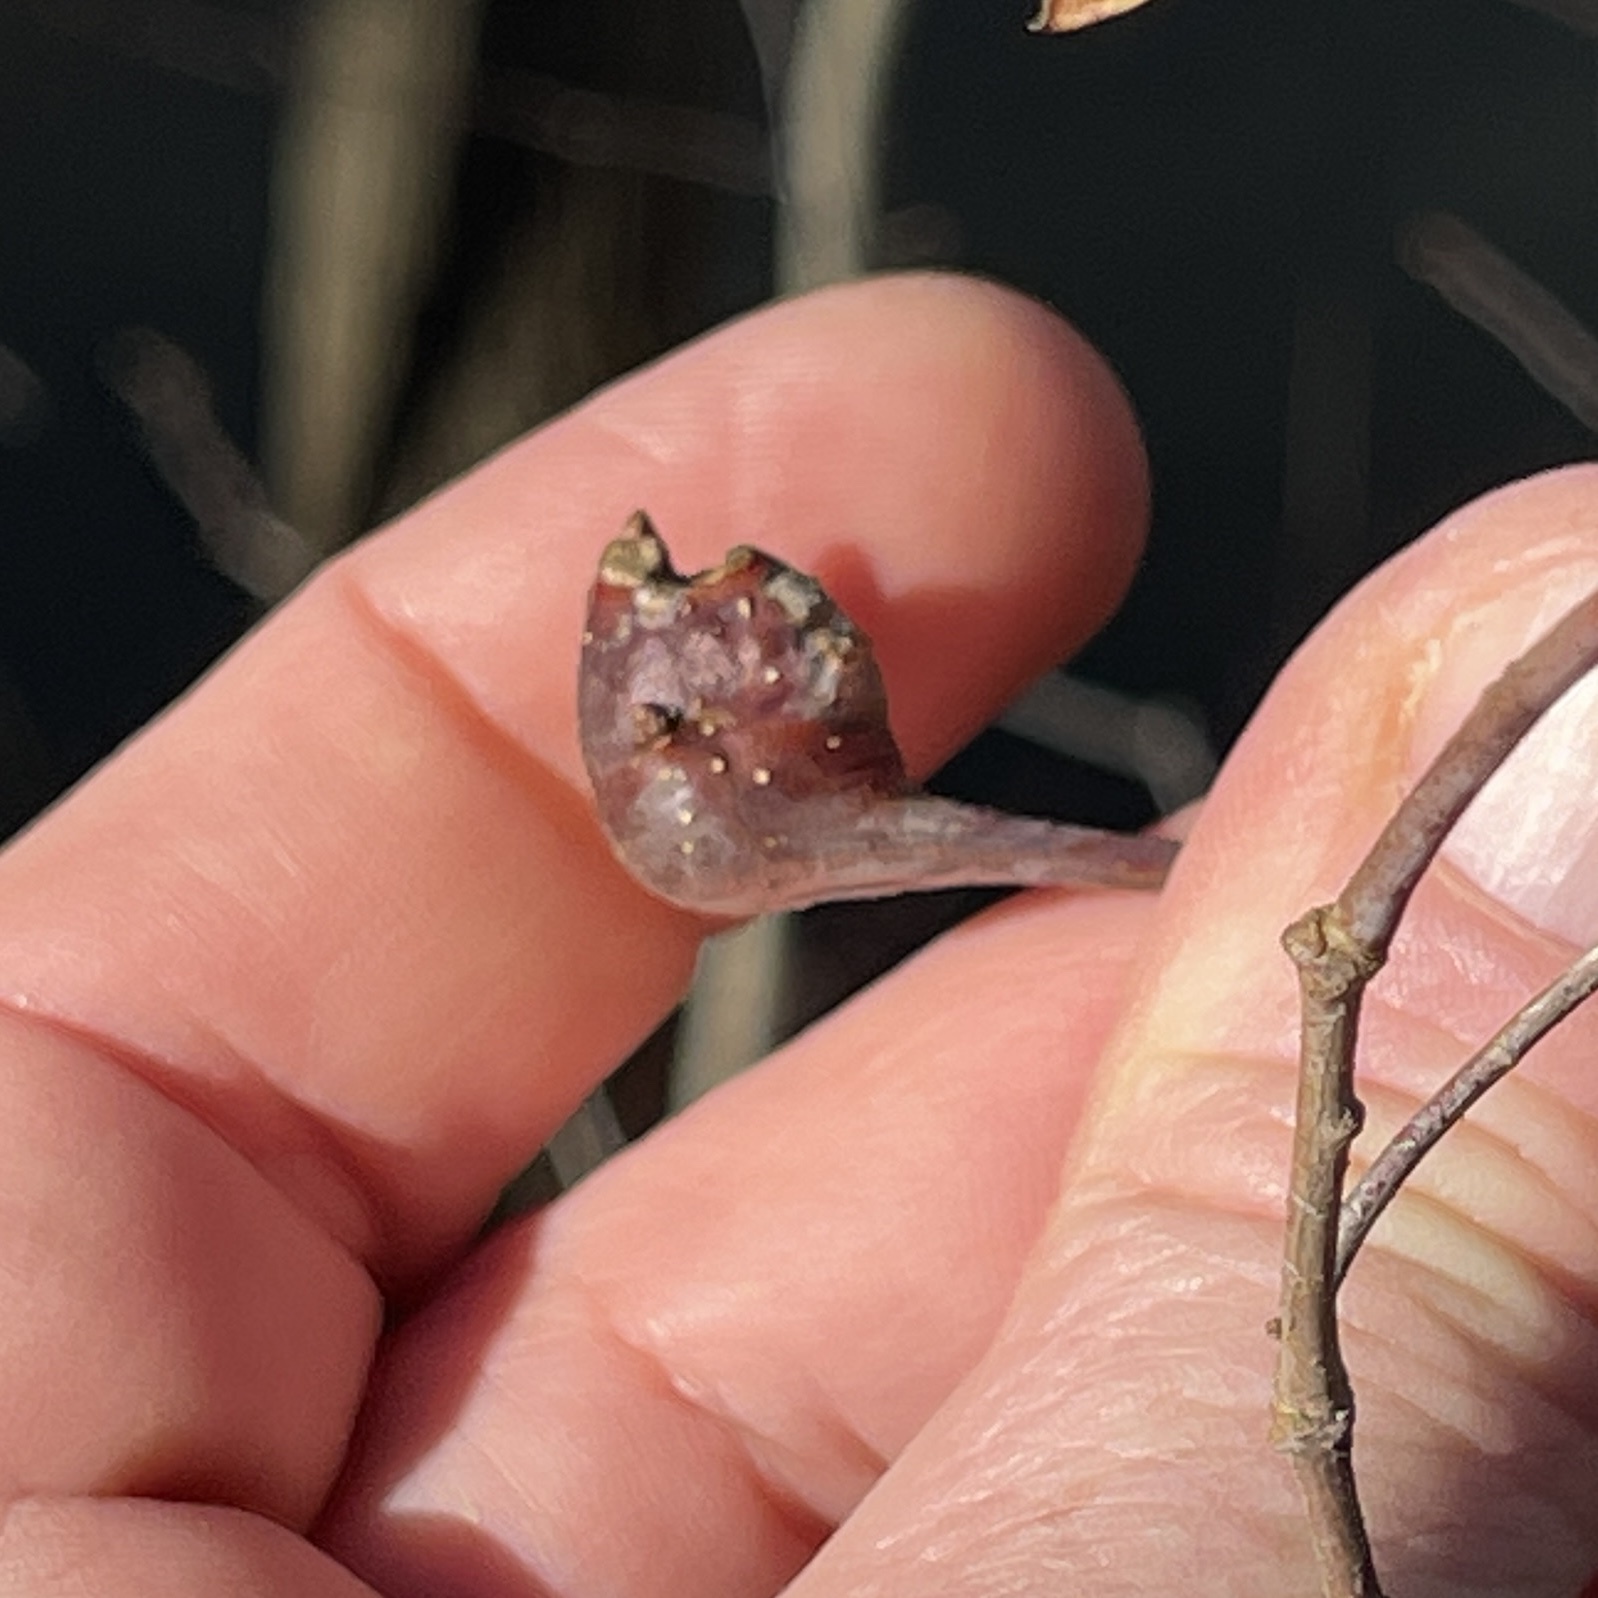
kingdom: Animalia
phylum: Arthropoda
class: Insecta
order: Hymenoptera
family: Cynipidae
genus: Callirhytis
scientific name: Callirhytis clavula
